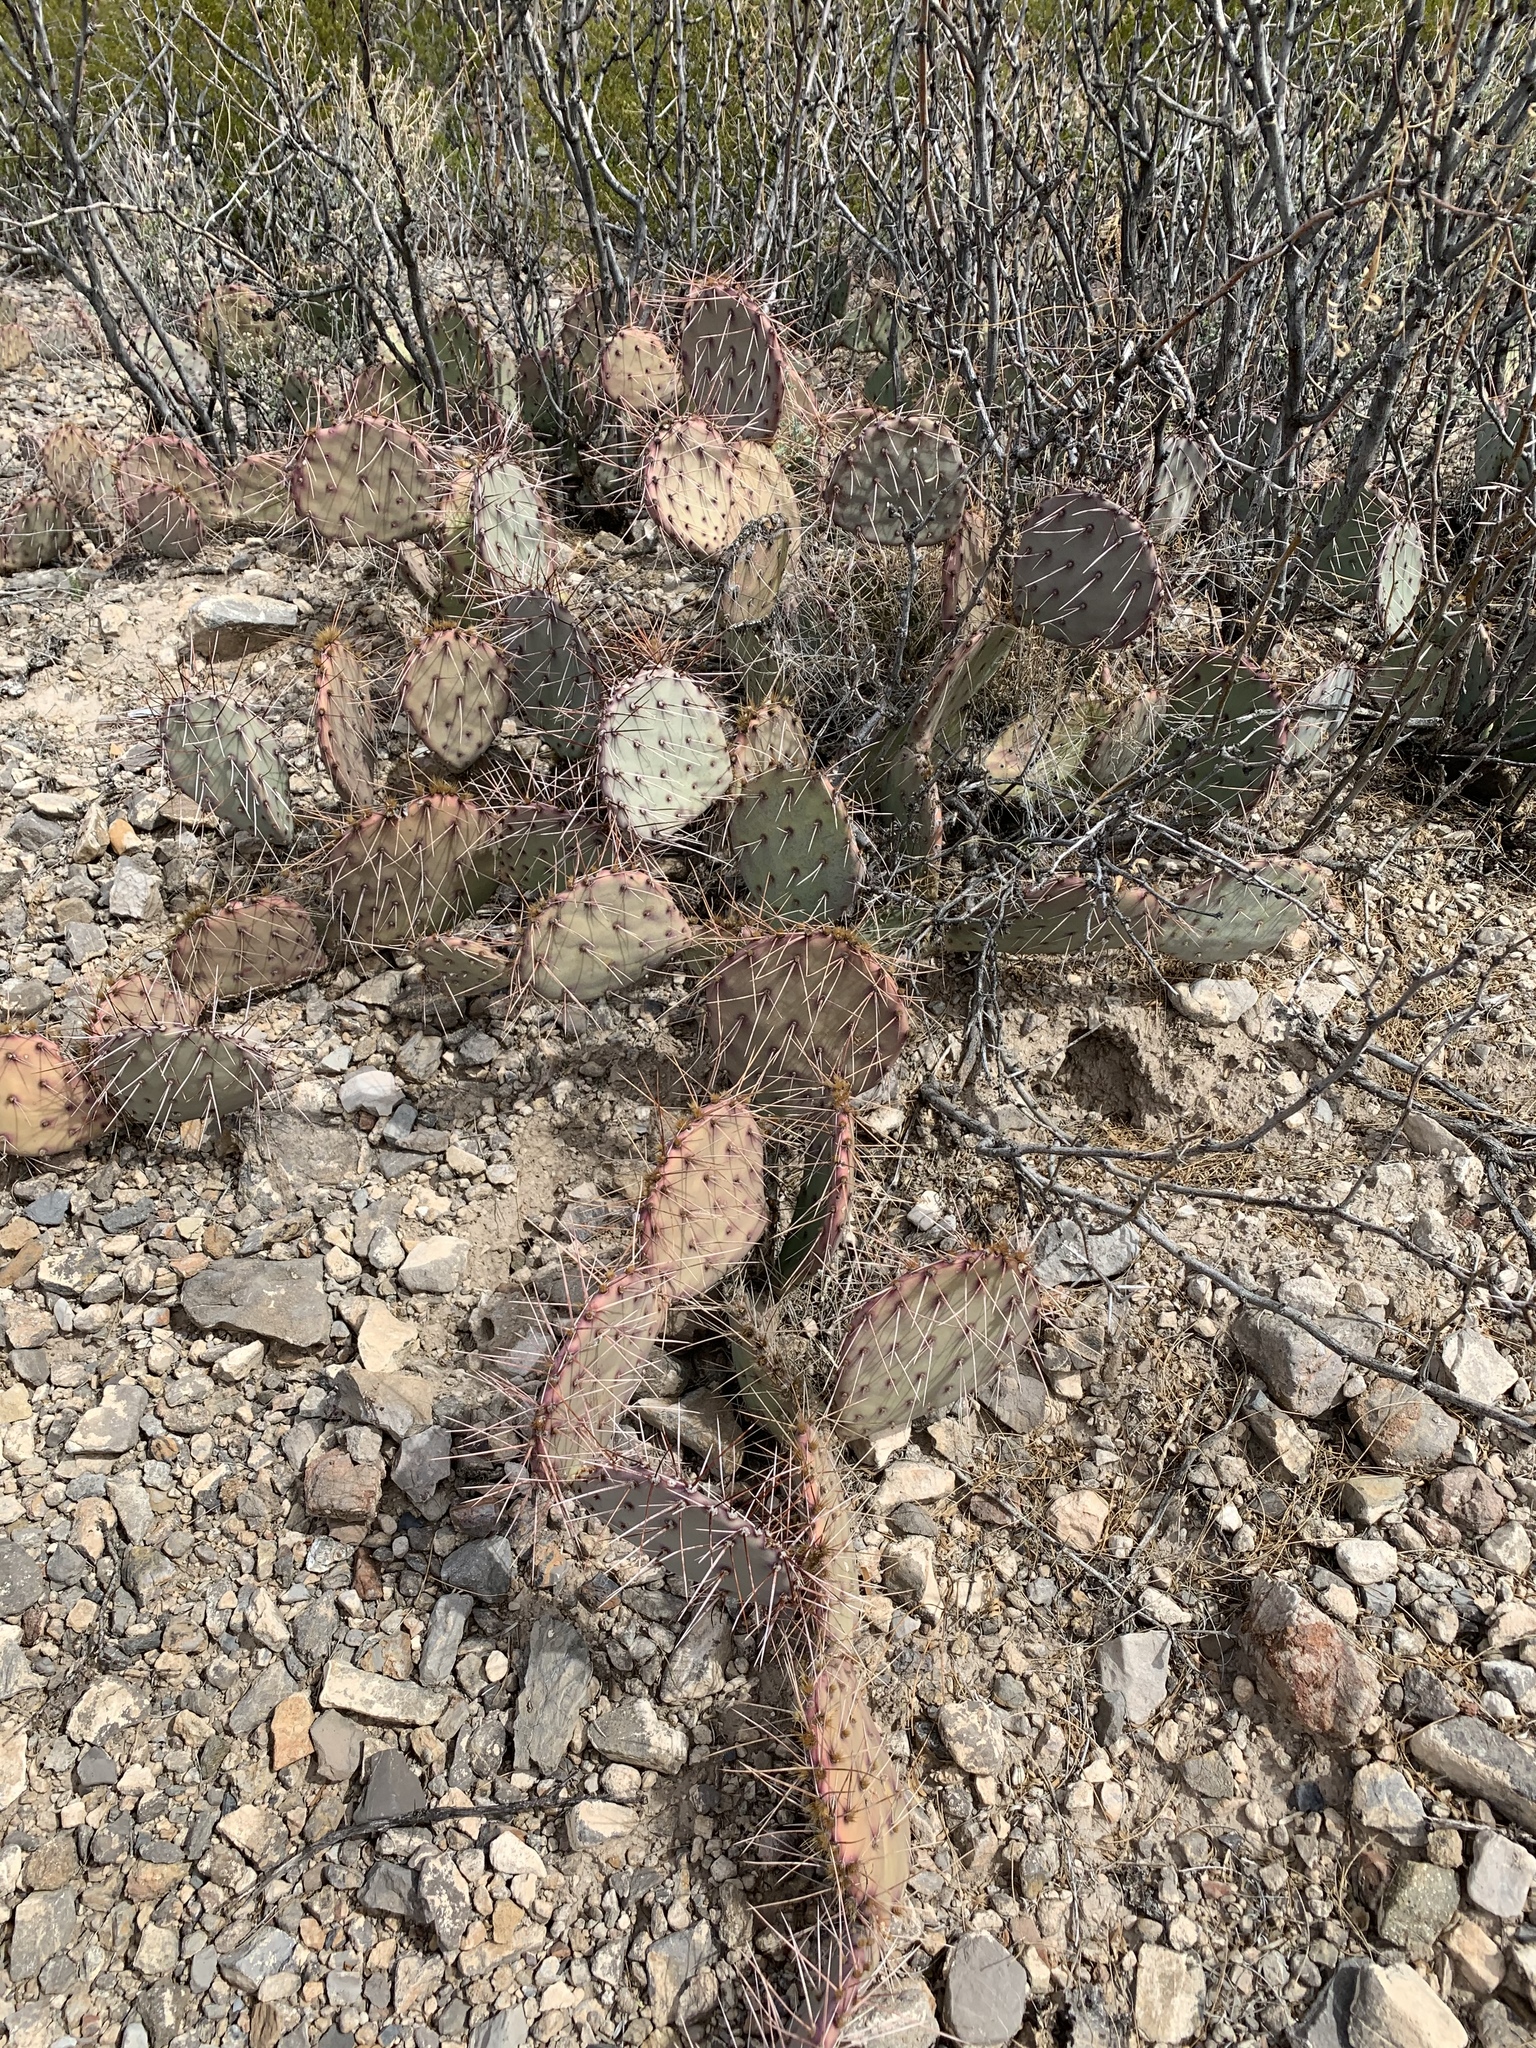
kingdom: Plantae
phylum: Tracheophyta
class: Magnoliopsida
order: Caryophyllales
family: Cactaceae
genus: Opuntia
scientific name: Opuntia macrocentra
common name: Purple prickly-pear
